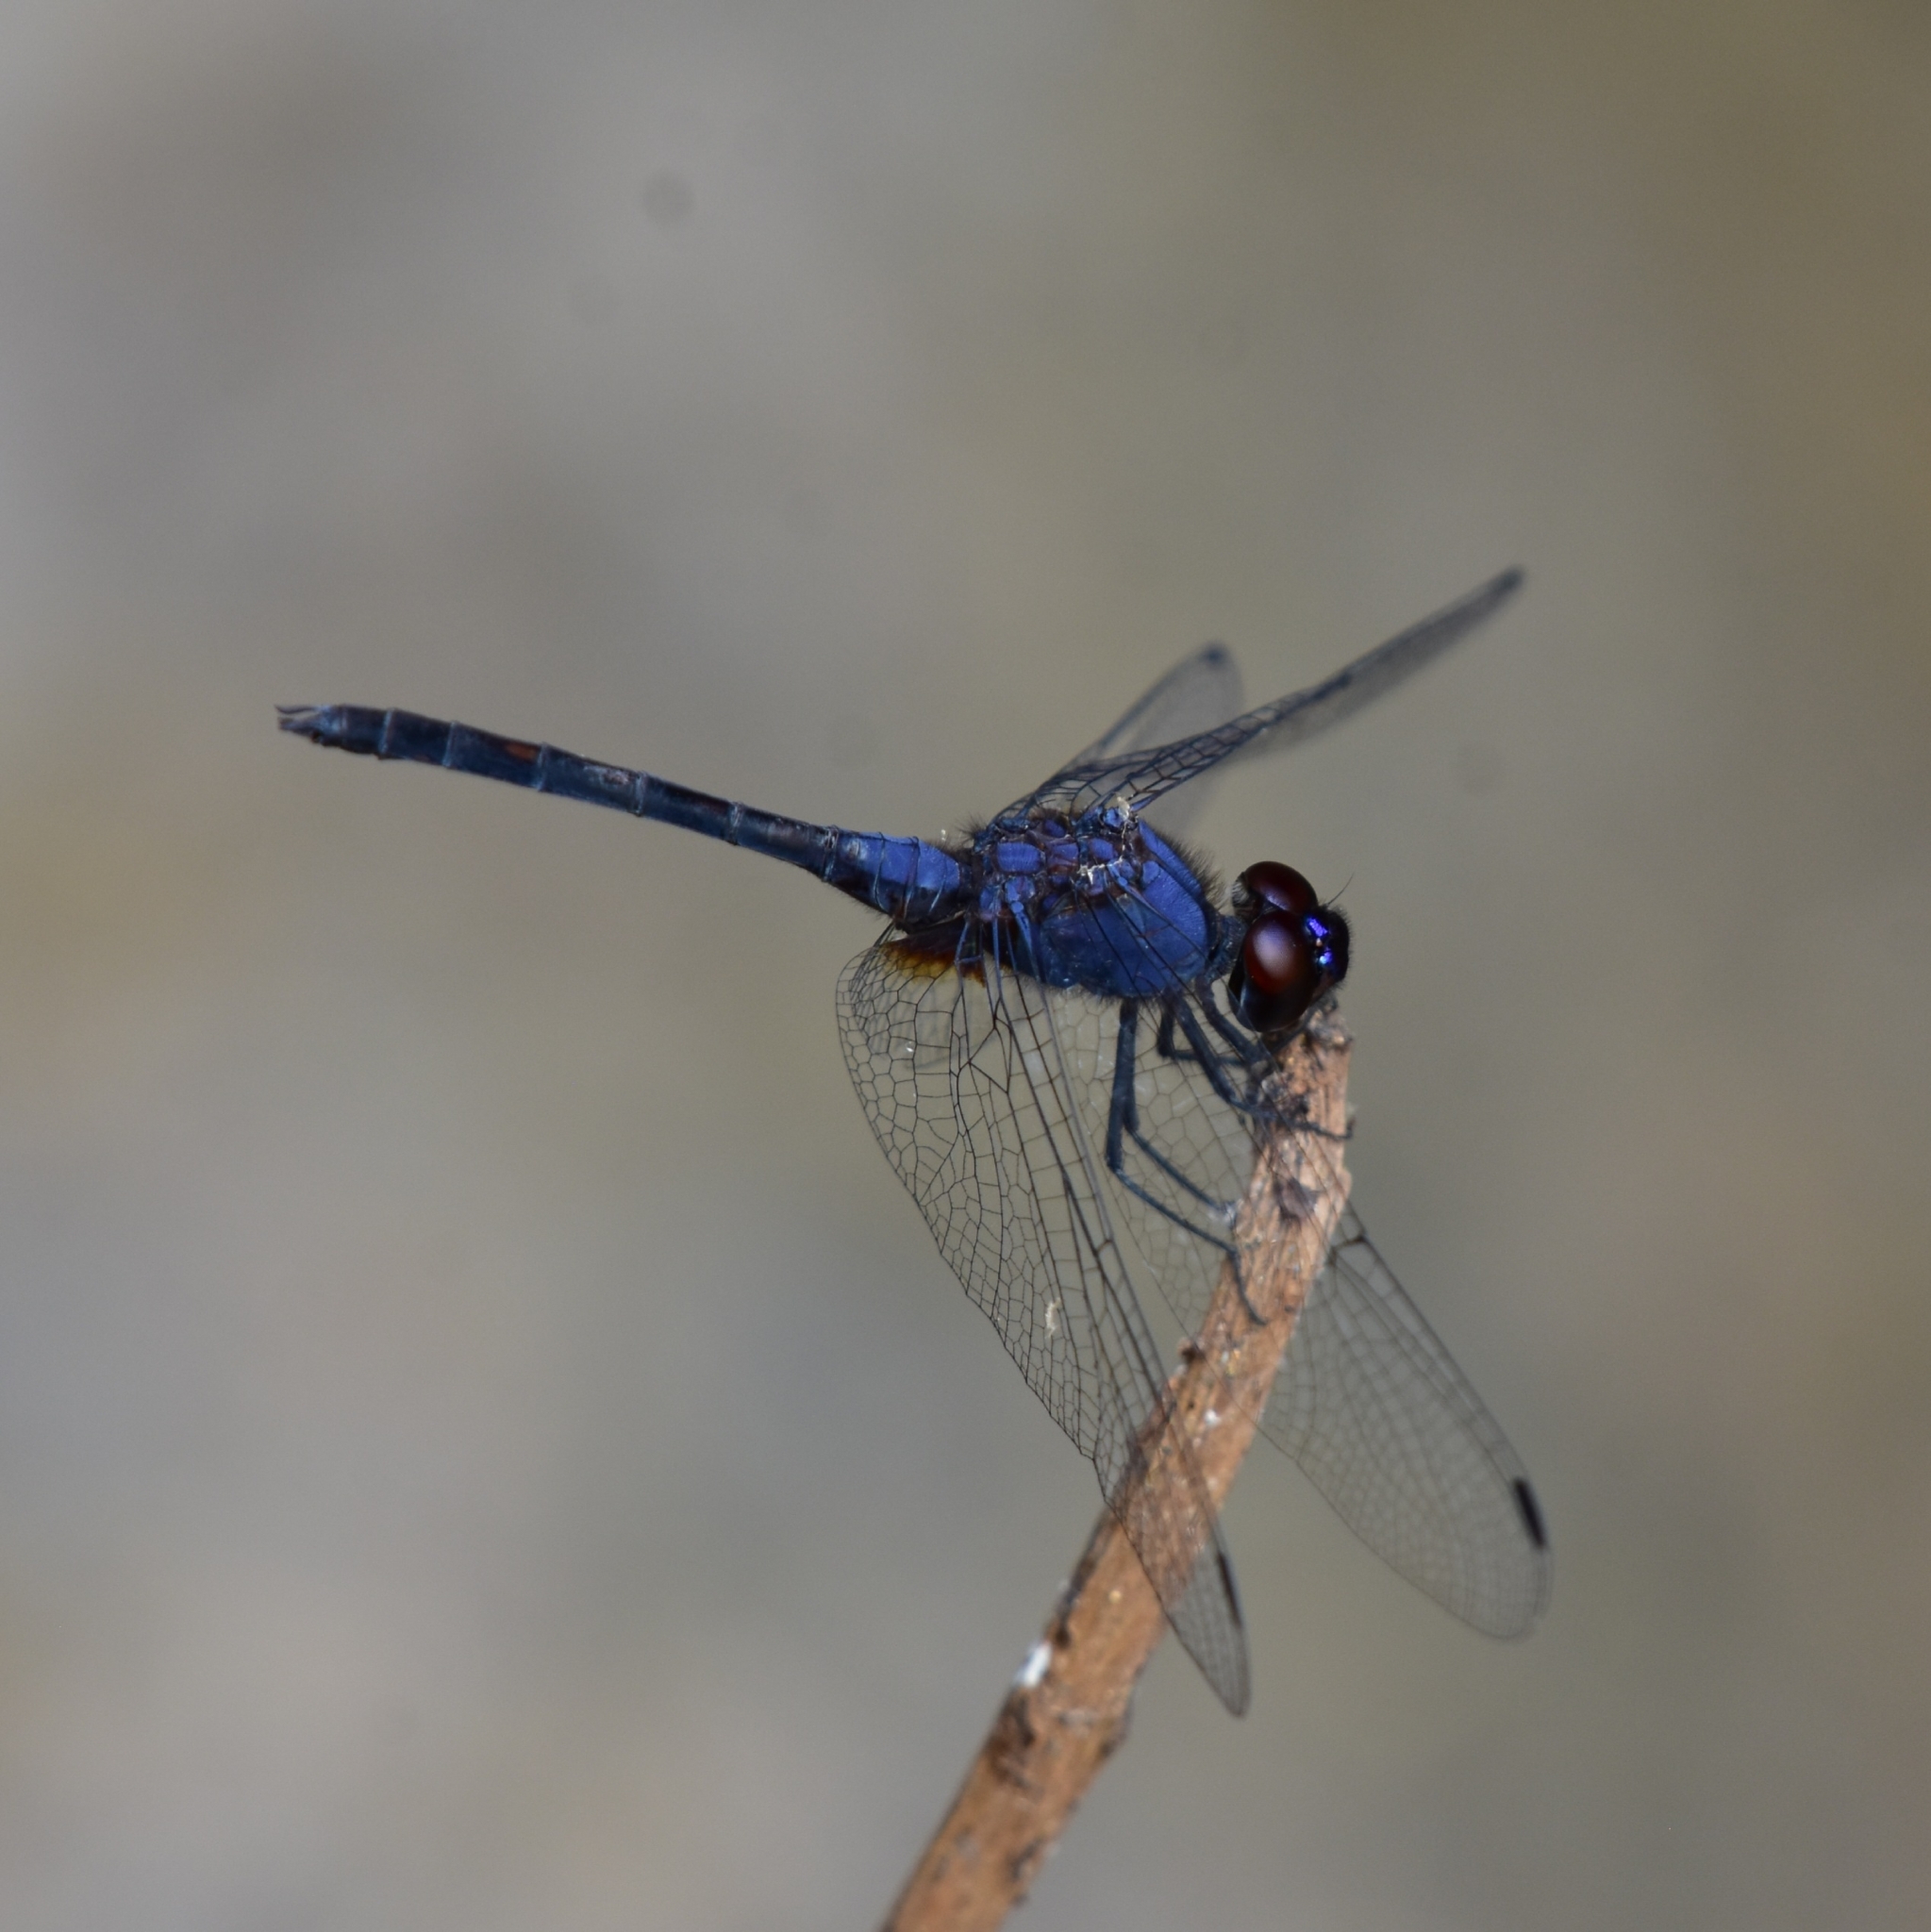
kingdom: Animalia
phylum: Arthropoda
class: Insecta
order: Odonata
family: Libellulidae
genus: Trithemis
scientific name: Trithemis festiva
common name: Indigo dropwing
